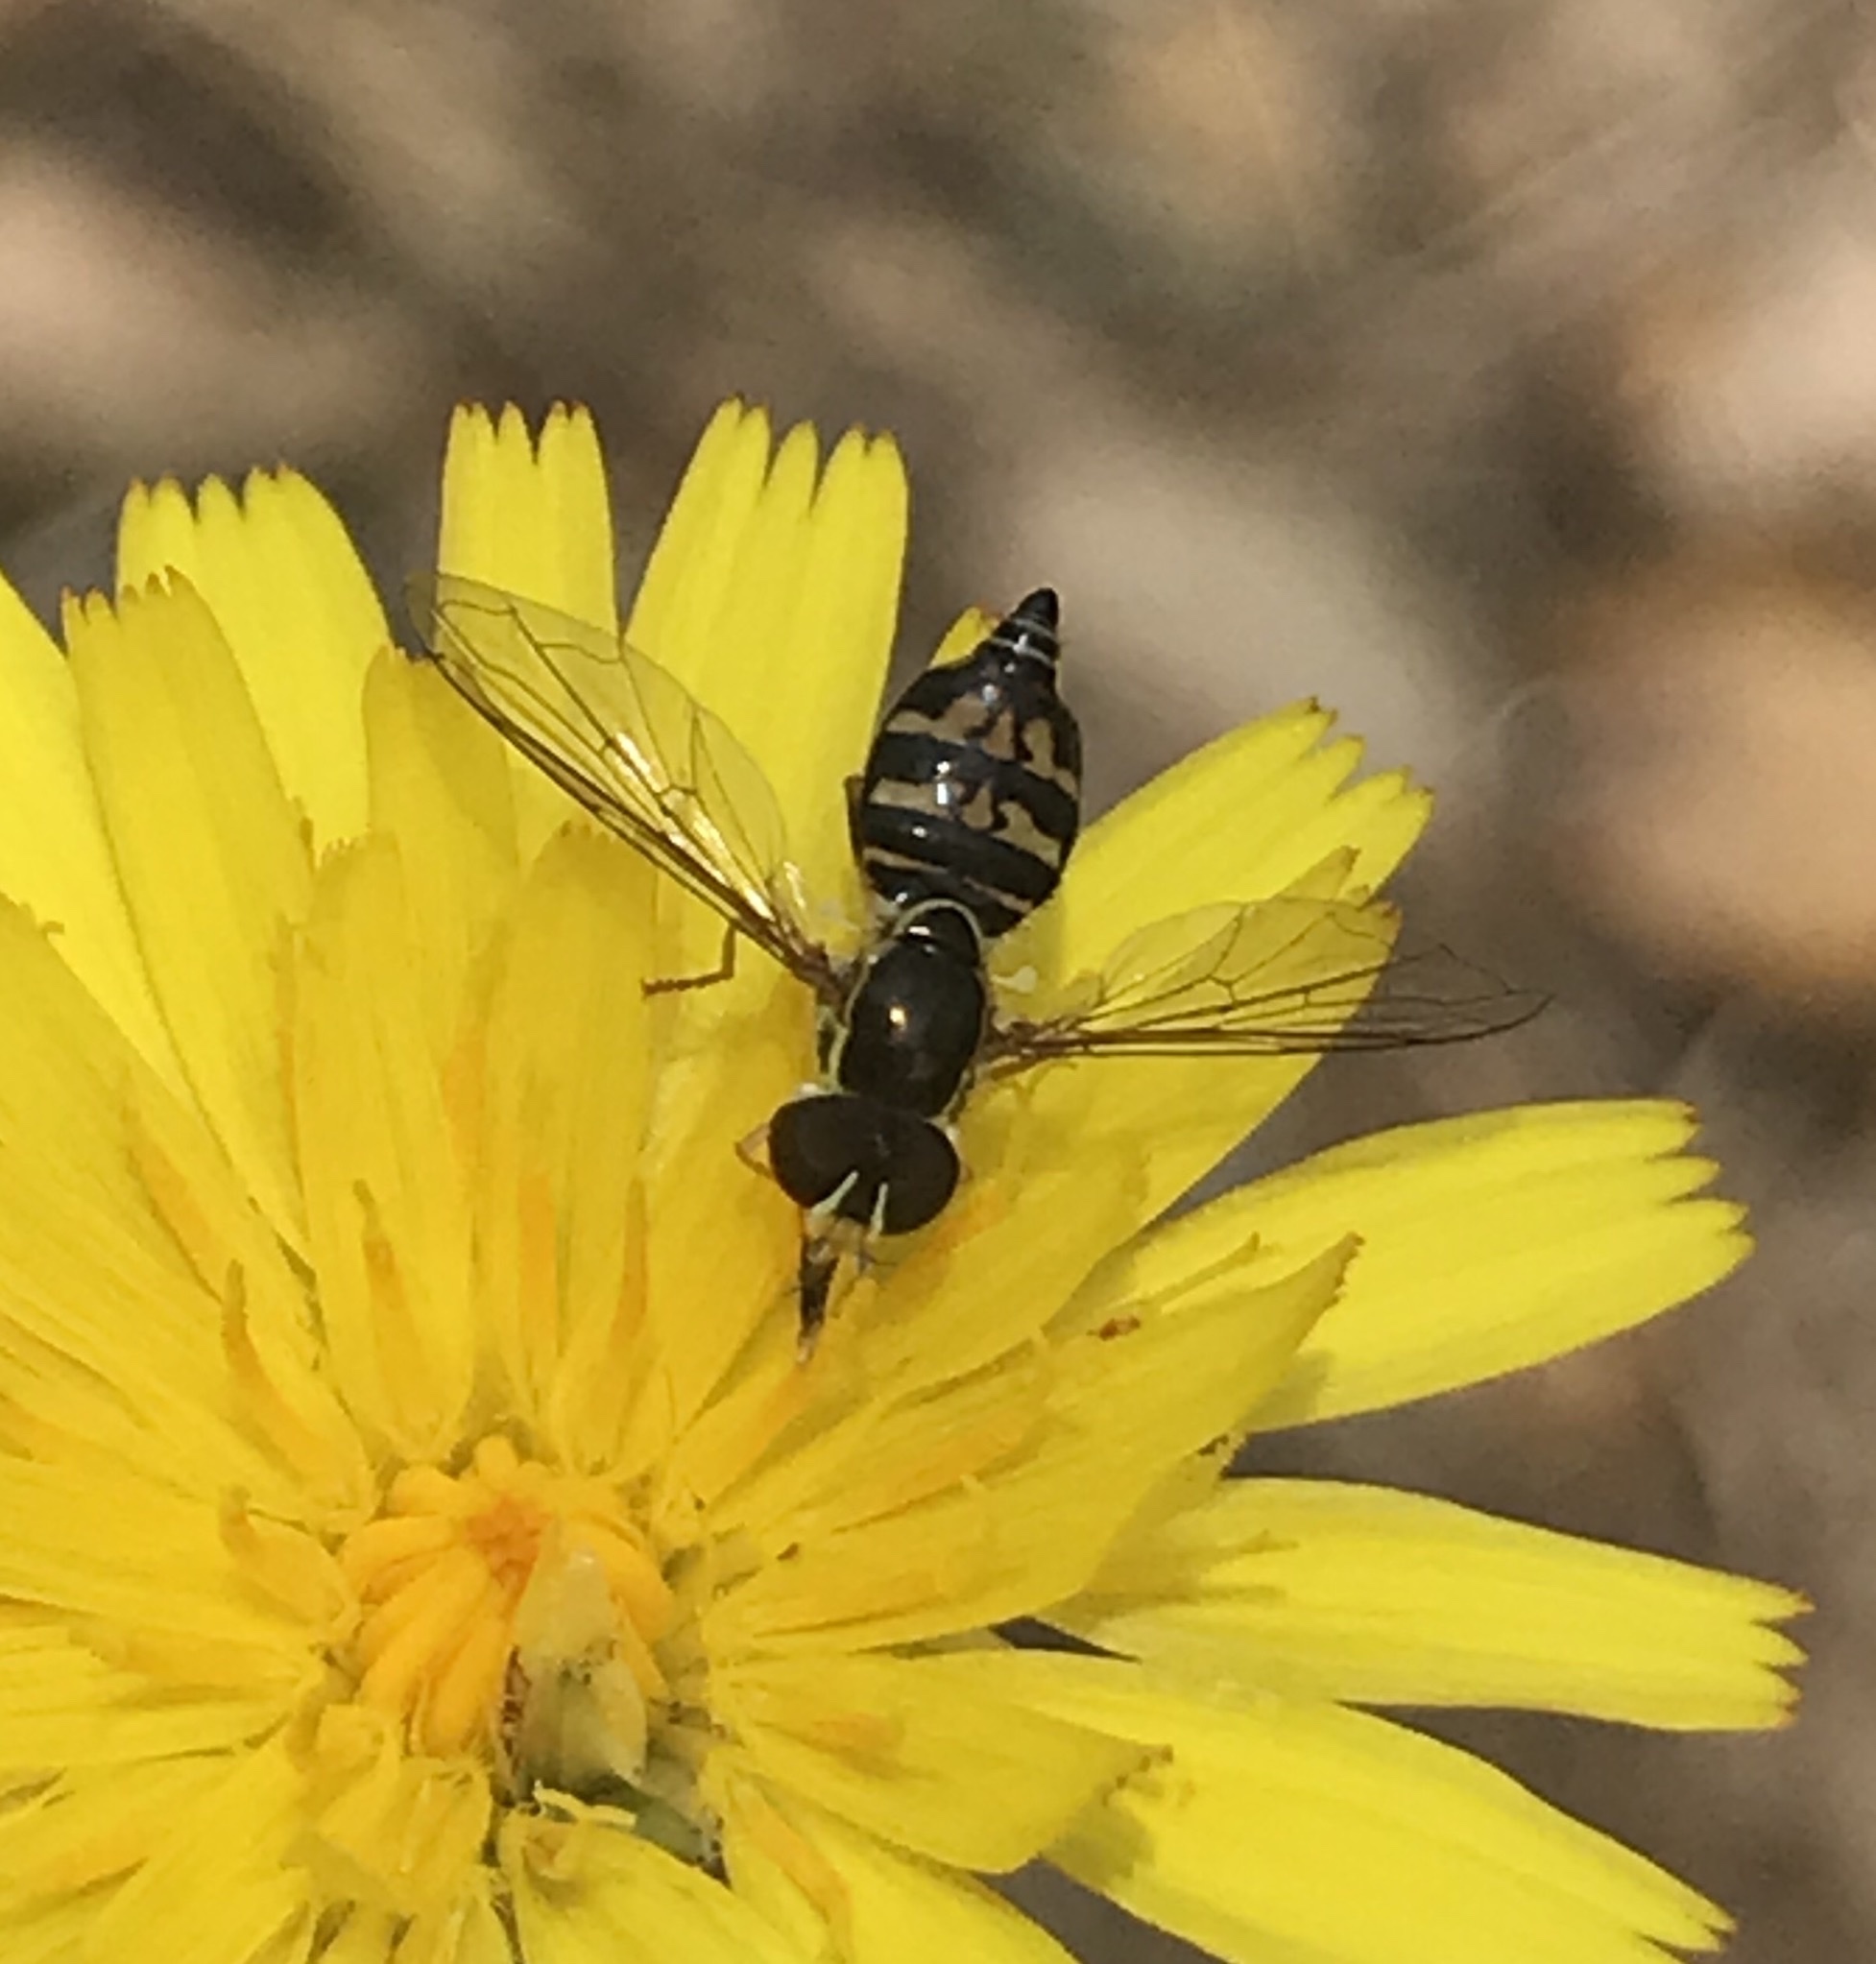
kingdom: Animalia
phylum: Arthropoda
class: Insecta
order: Diptera
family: Syrphidae
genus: Toxomerus
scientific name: Toxomerus occidentalis
